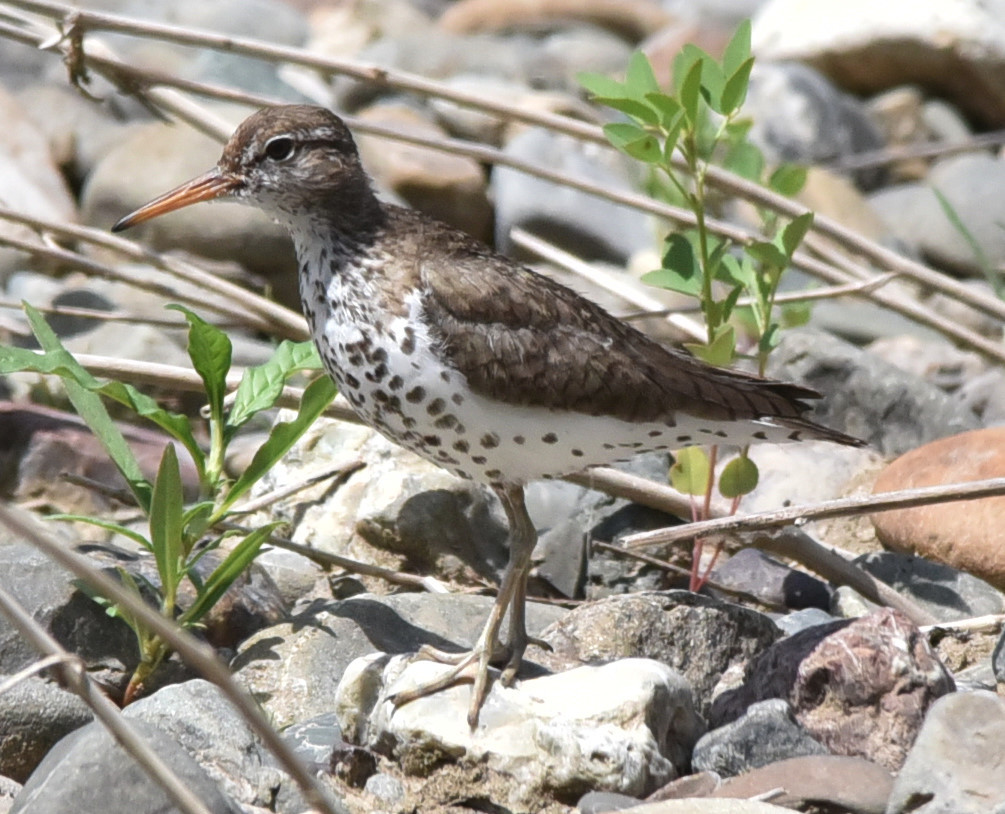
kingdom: Animalia
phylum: Chordata
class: Aves
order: Charadriiformes
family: Scolopacidae
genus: Actitis
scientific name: Actitis macularius
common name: Spotted sandpiper
